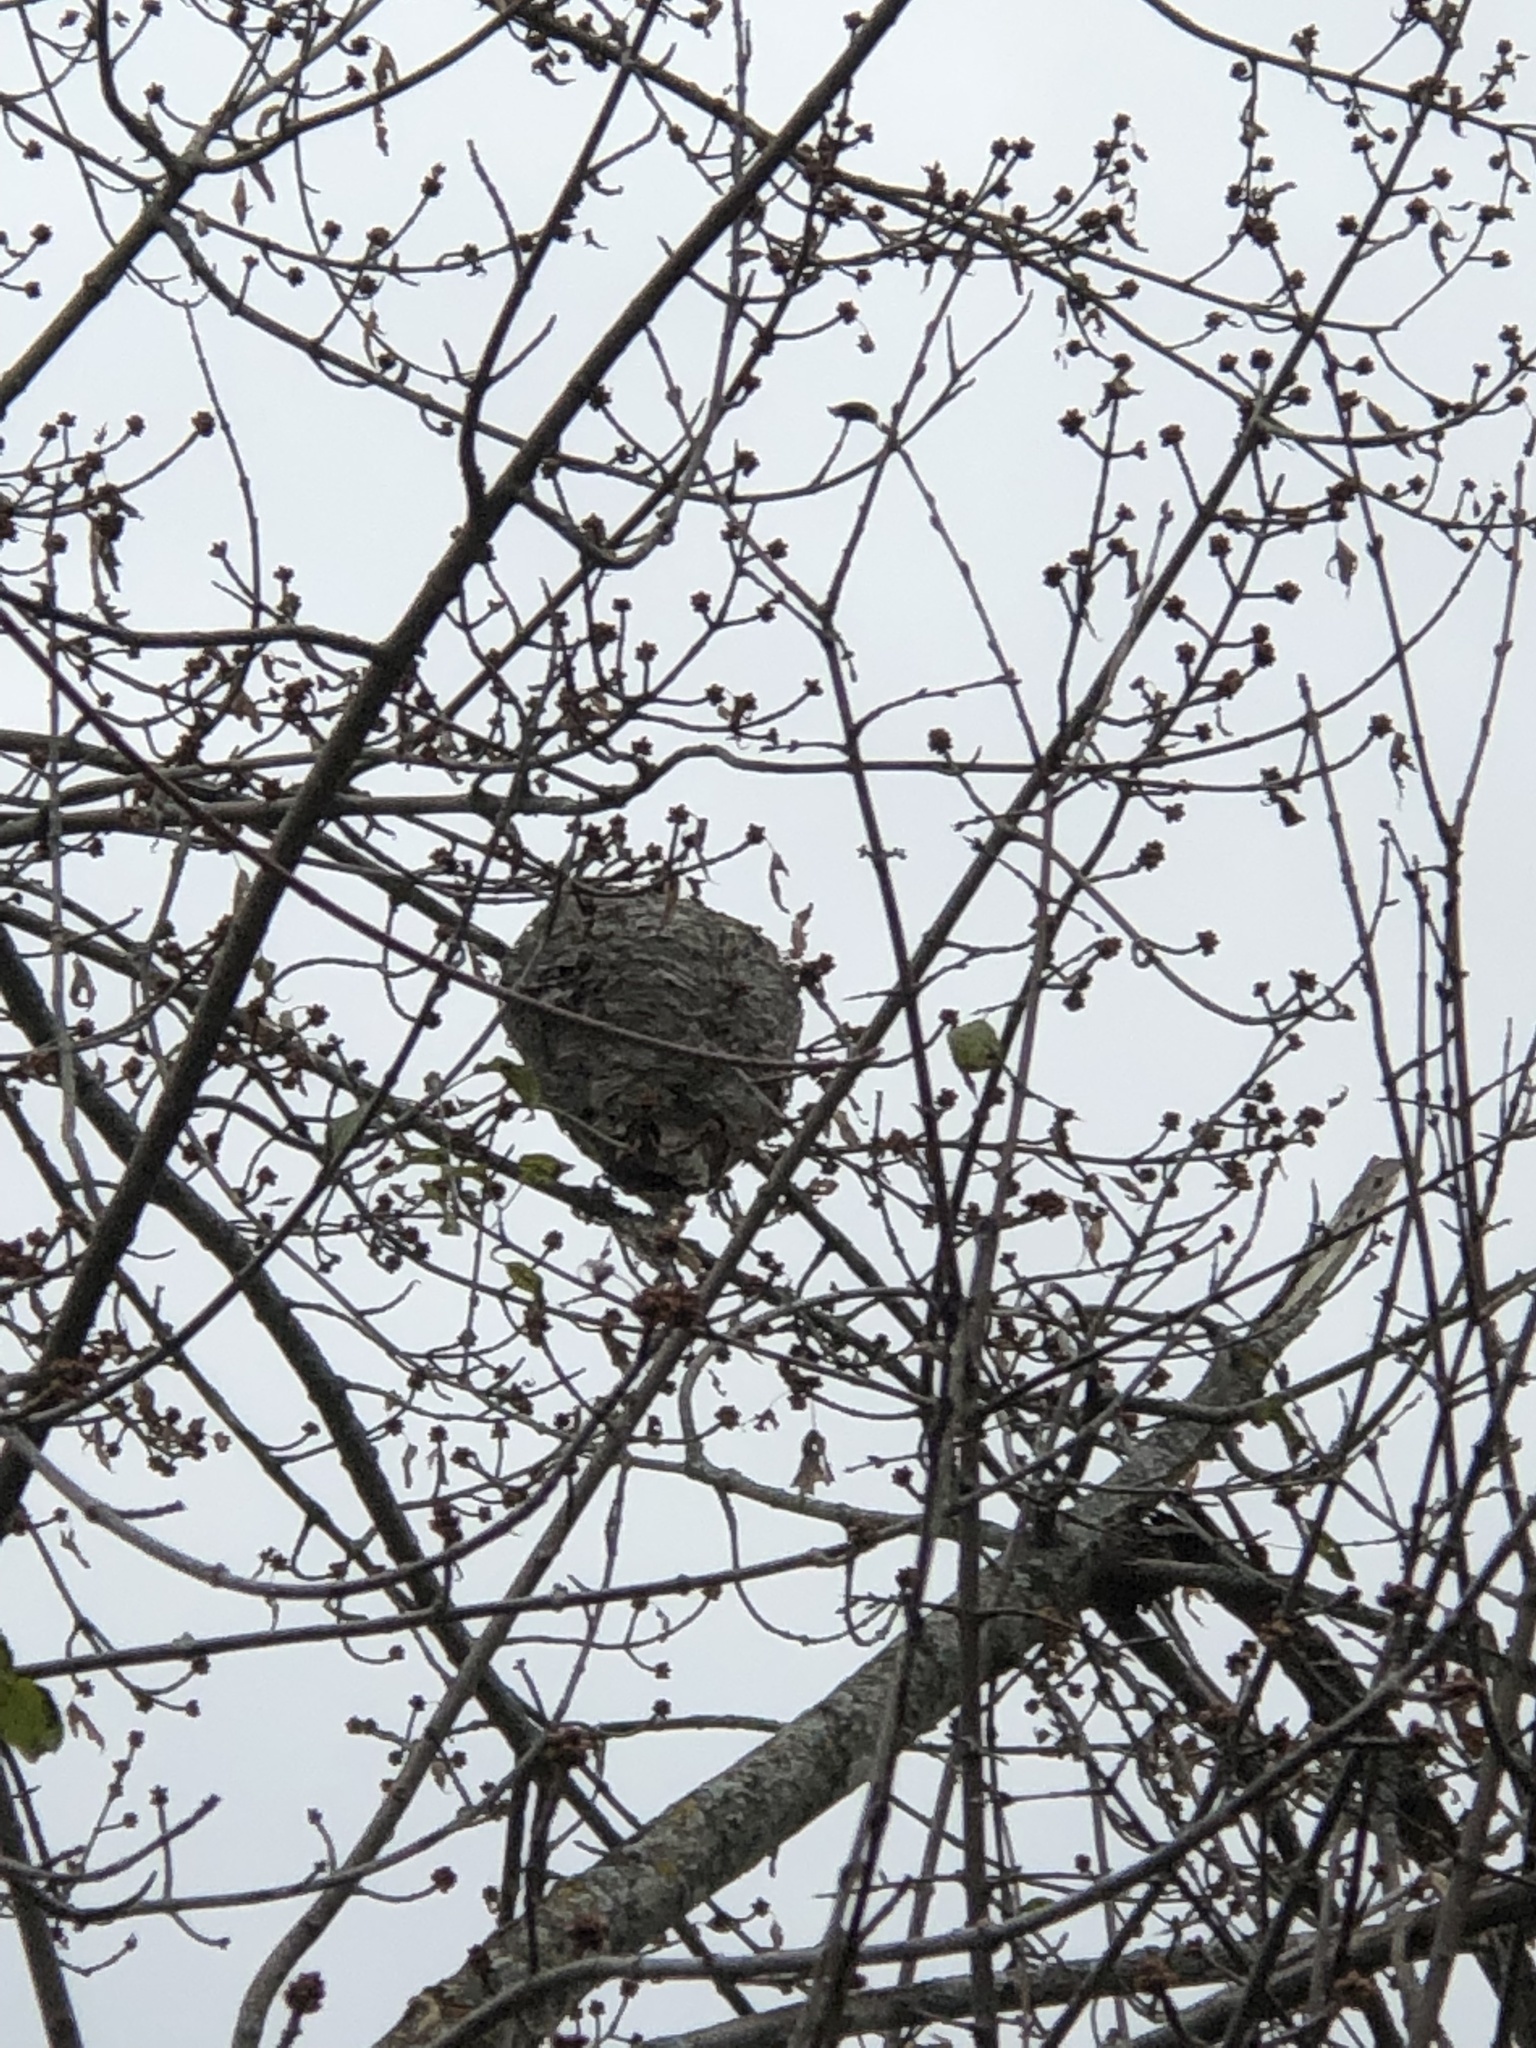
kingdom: Animalia
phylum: Arthropoda
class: Insecta
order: Hymenoptera
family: Vespidae
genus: Dolichovespula
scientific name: Dolichovespula
